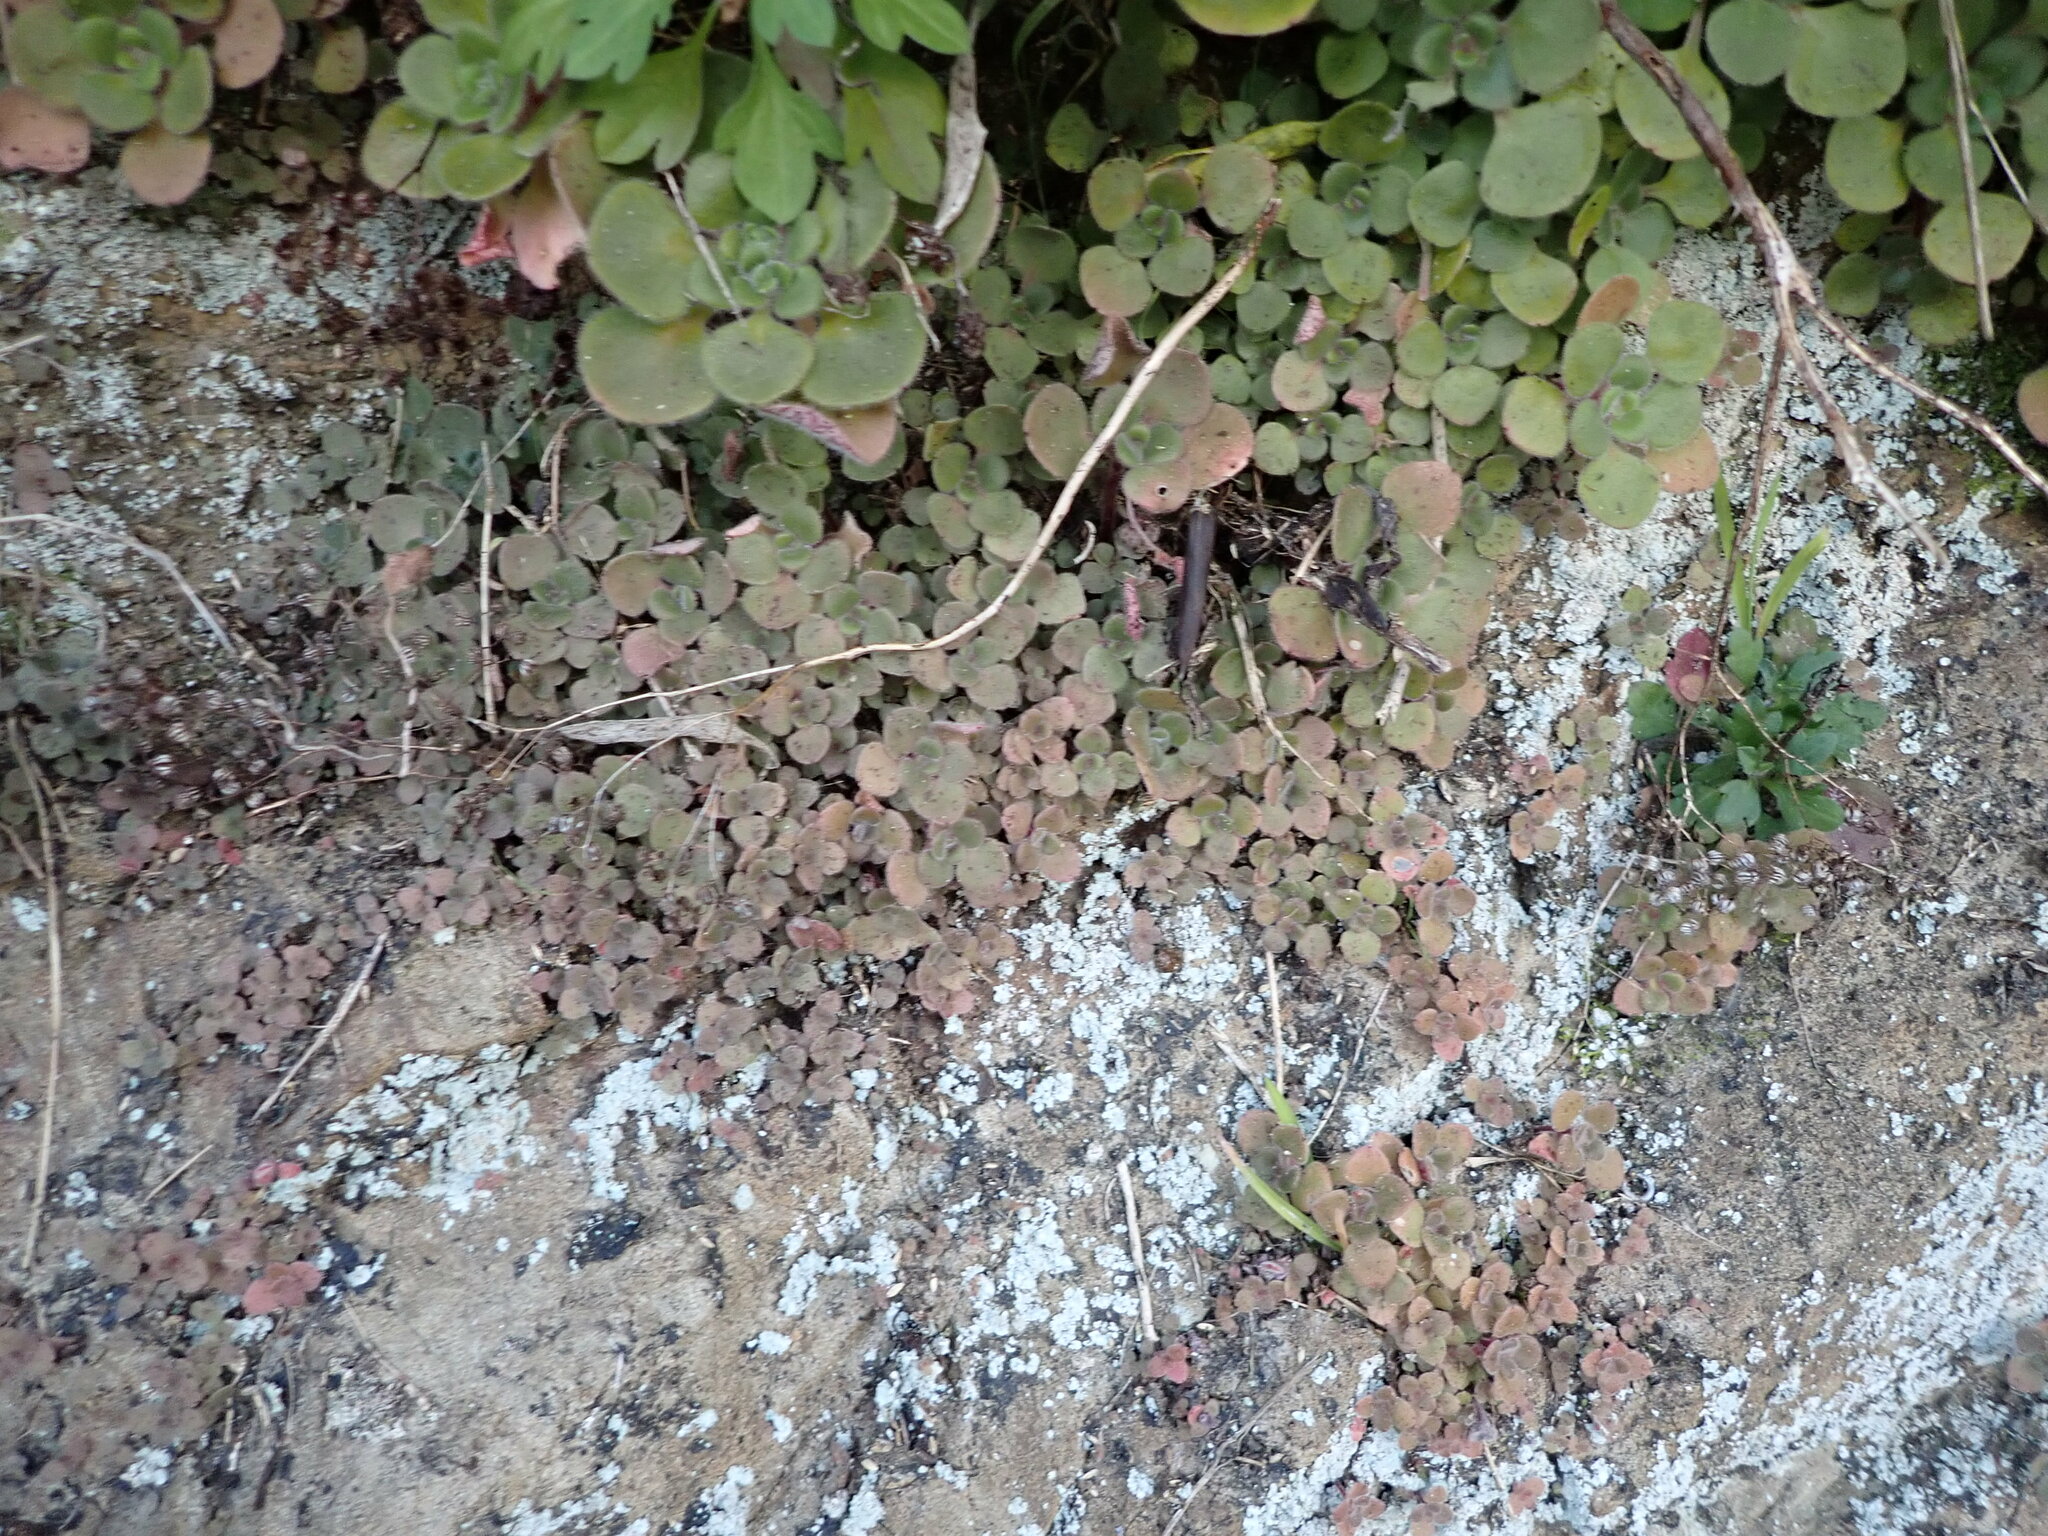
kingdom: Plantae
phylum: Tracheophyta
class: Magnoliopsida
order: Saxifragales
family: Crassulaceae
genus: Aichryson
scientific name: Aichryson laxum
